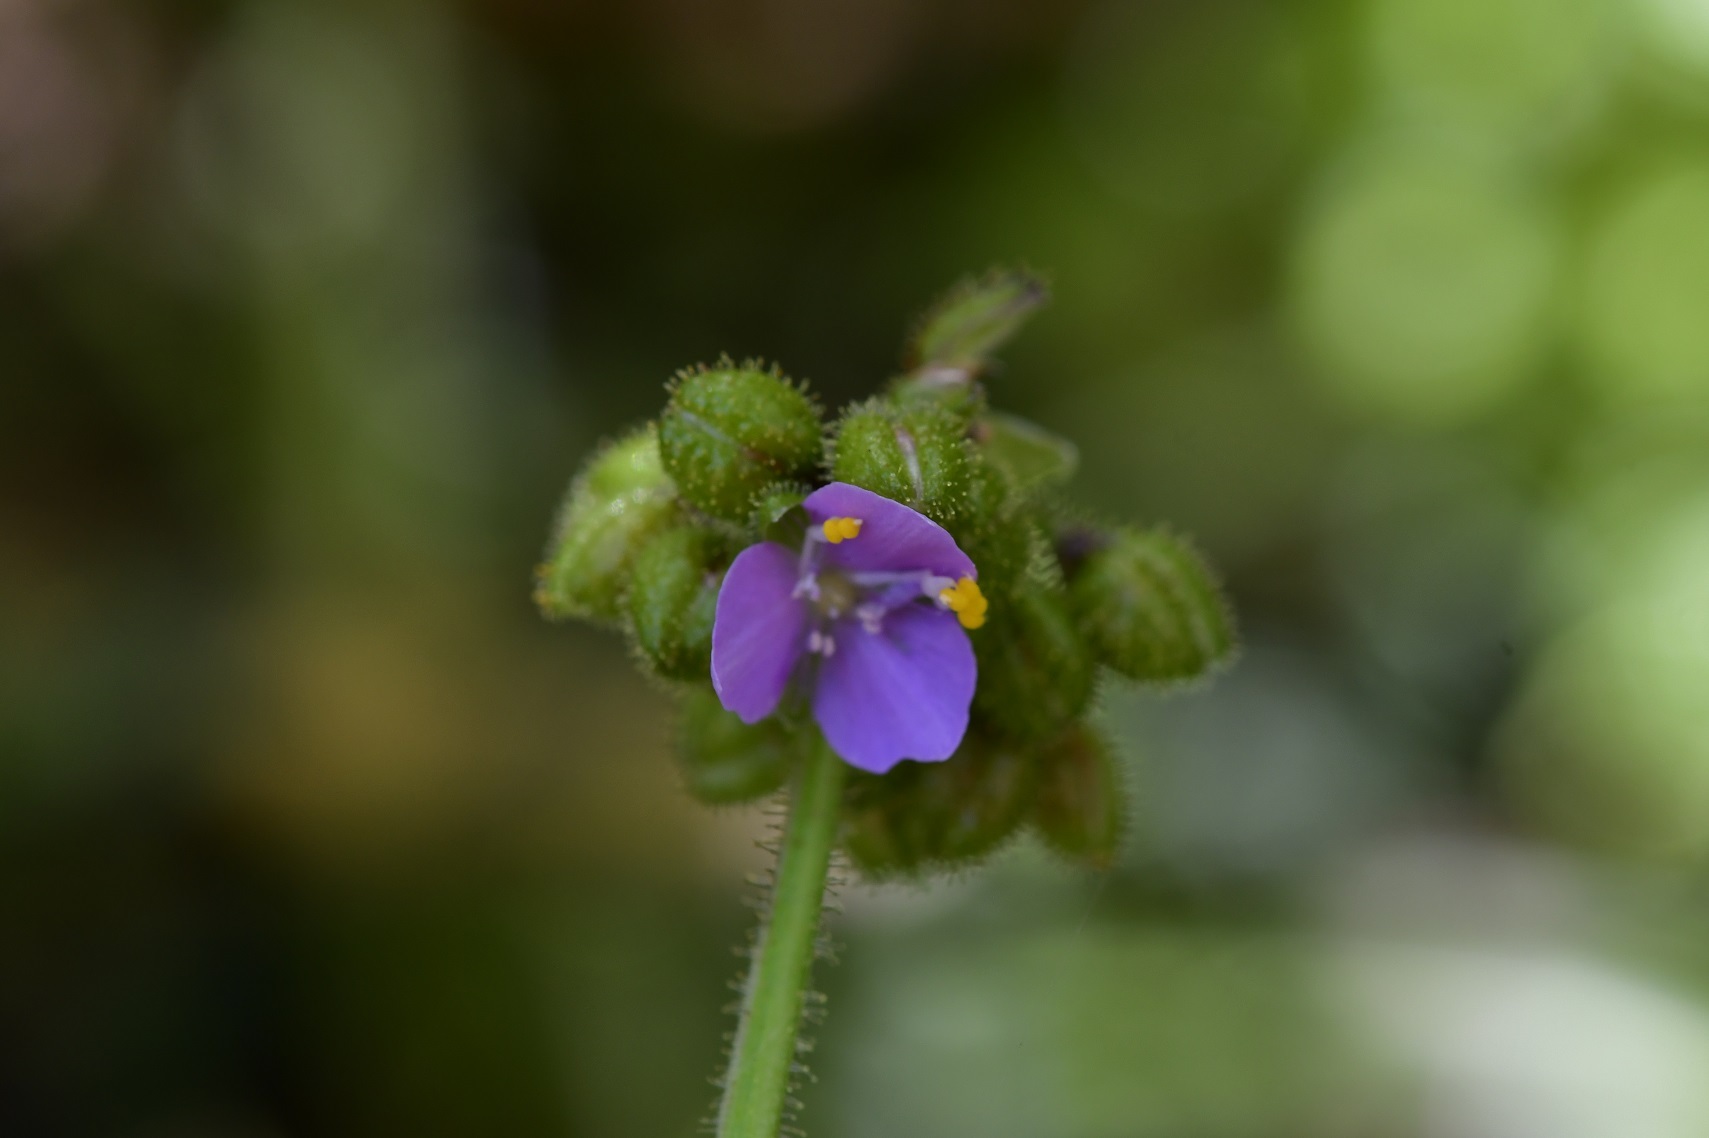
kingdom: Plantae
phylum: Tracheophyta
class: Liliopsida
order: Commelinales
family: Commelinaceae
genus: Callisia
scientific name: Callisia purpurascens
